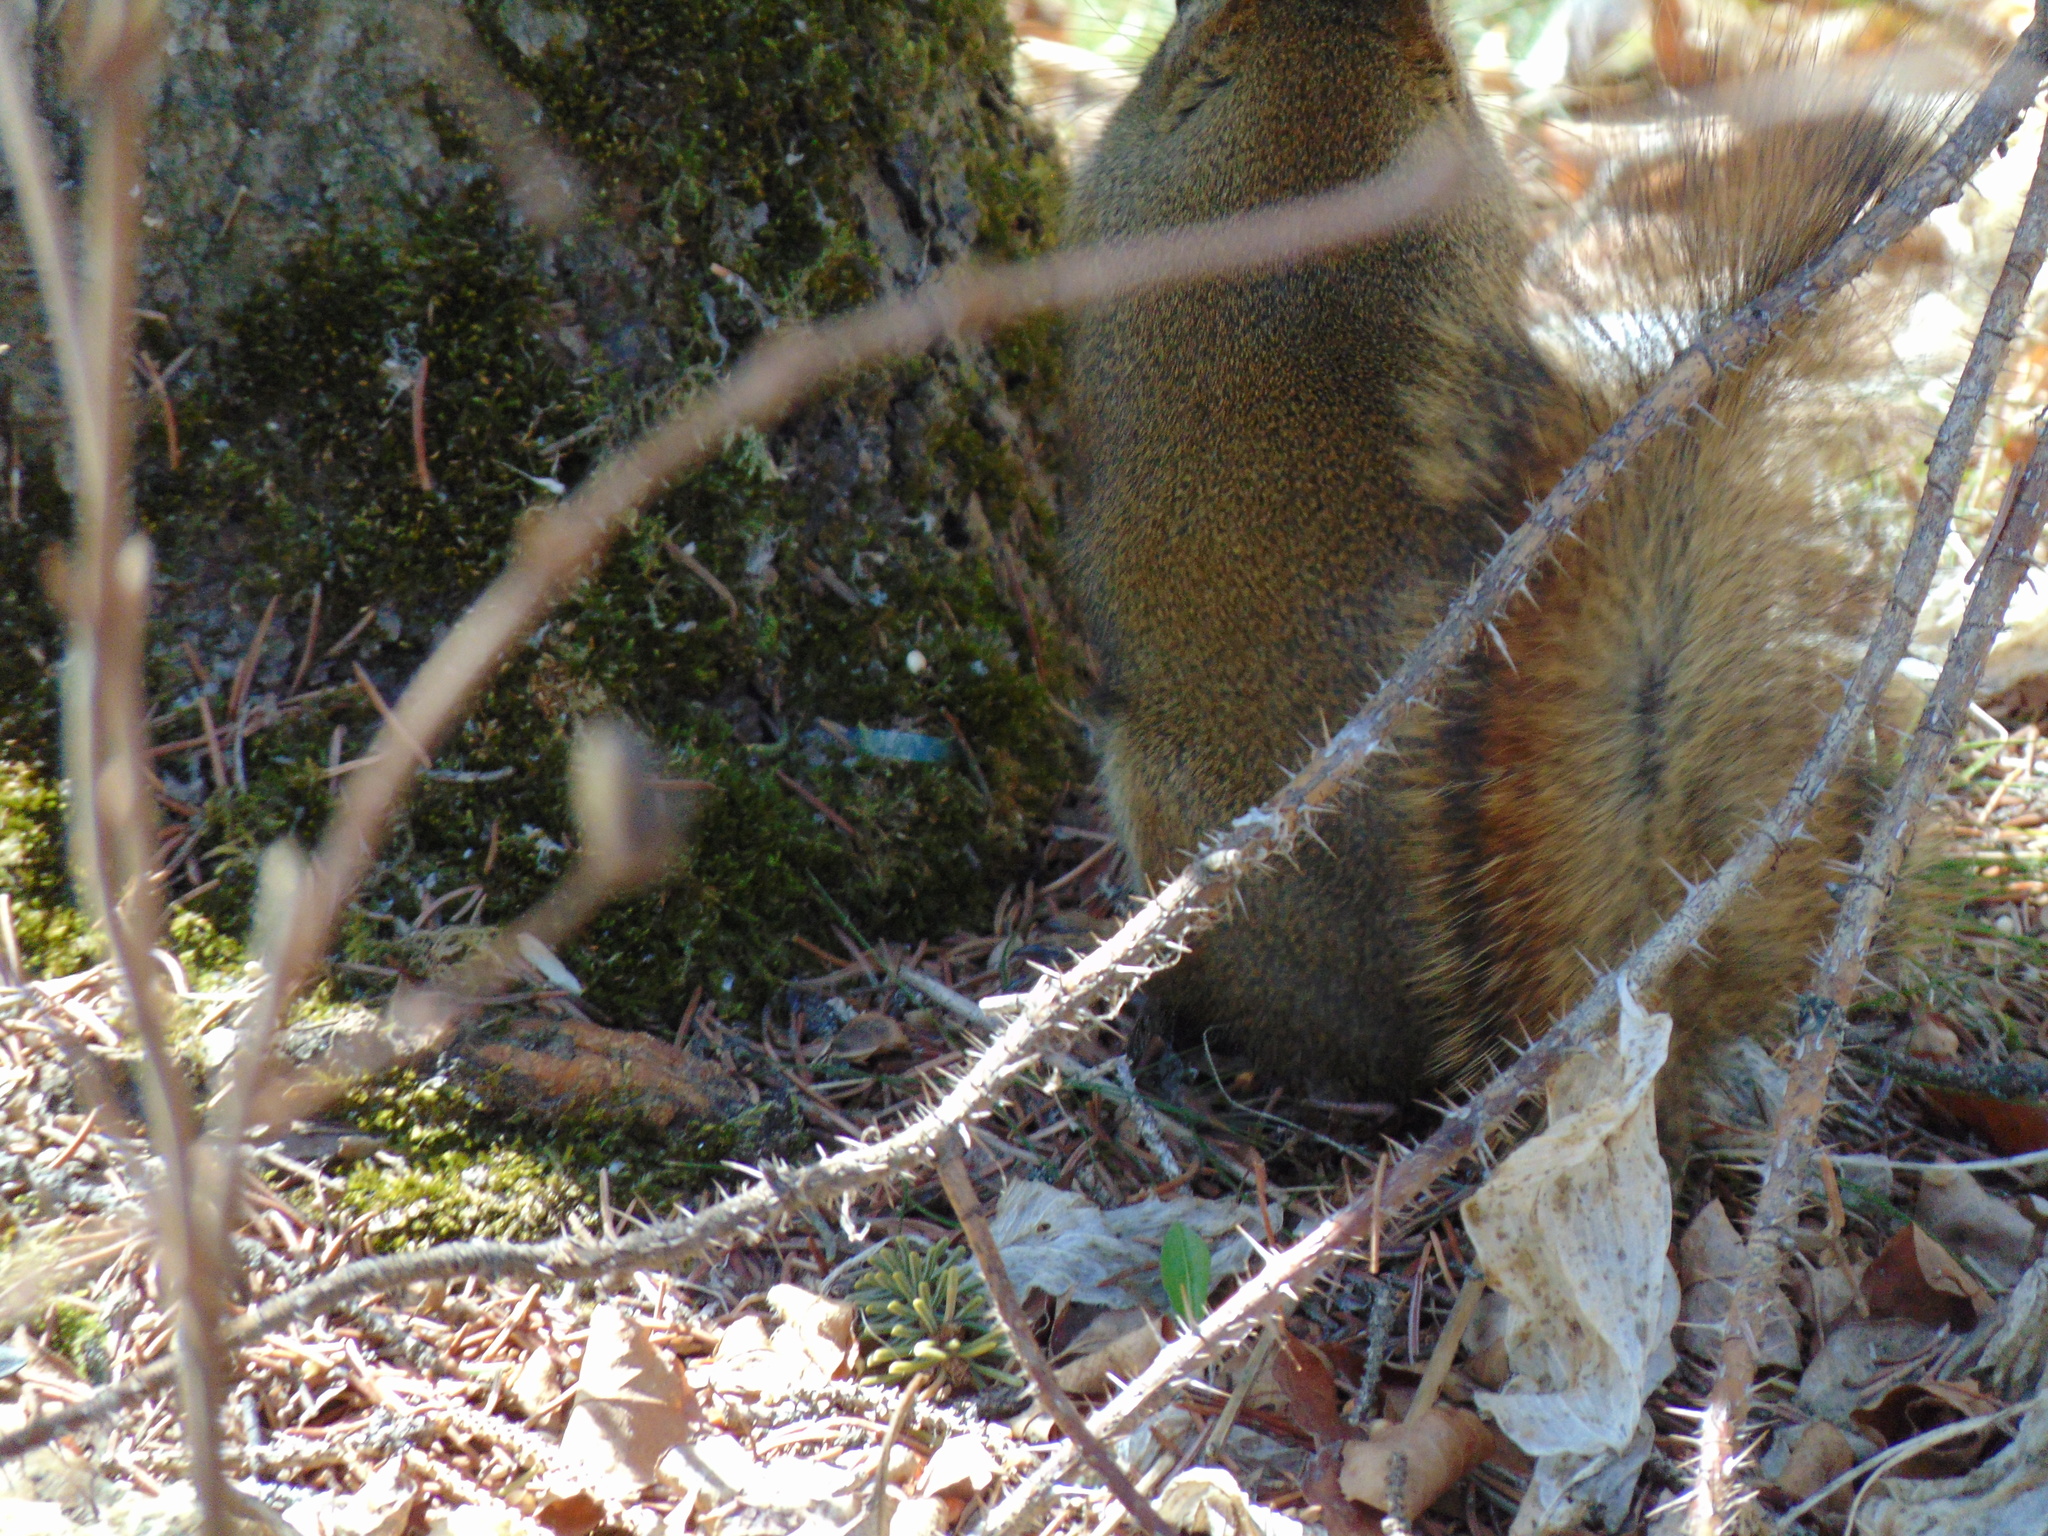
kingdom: Animalia
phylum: Chordata
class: Mammalia
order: Rodentia
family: Sciuridae
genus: Tamiasciurus
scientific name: Tamiasciurus hudsonicus
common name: Red squirrel
